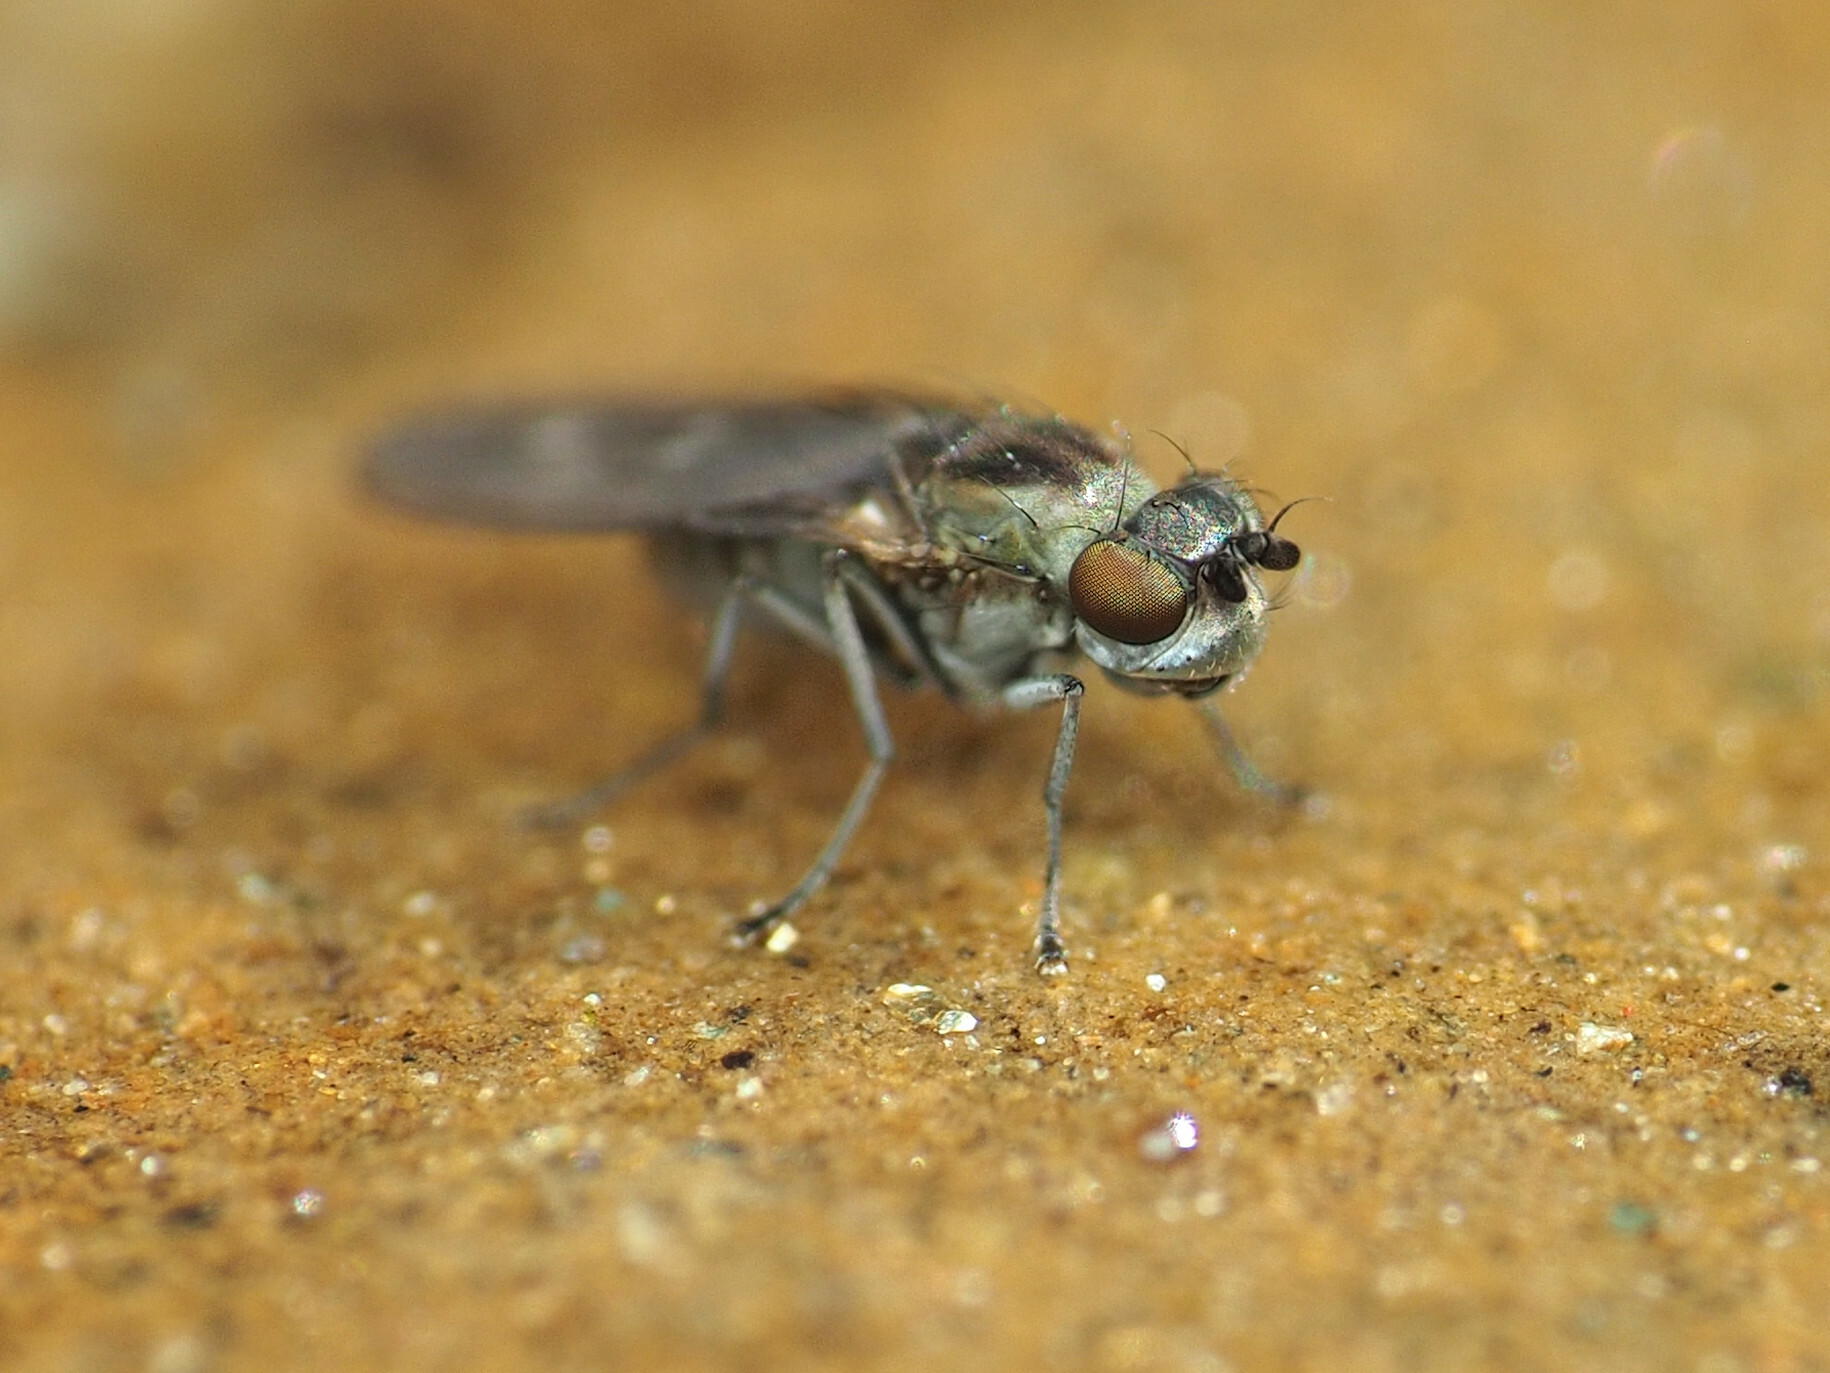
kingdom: Animalia
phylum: Arthropoda
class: Insecta
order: Diptera
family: Ephydridae
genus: Scatella
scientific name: Scatella favillacea
